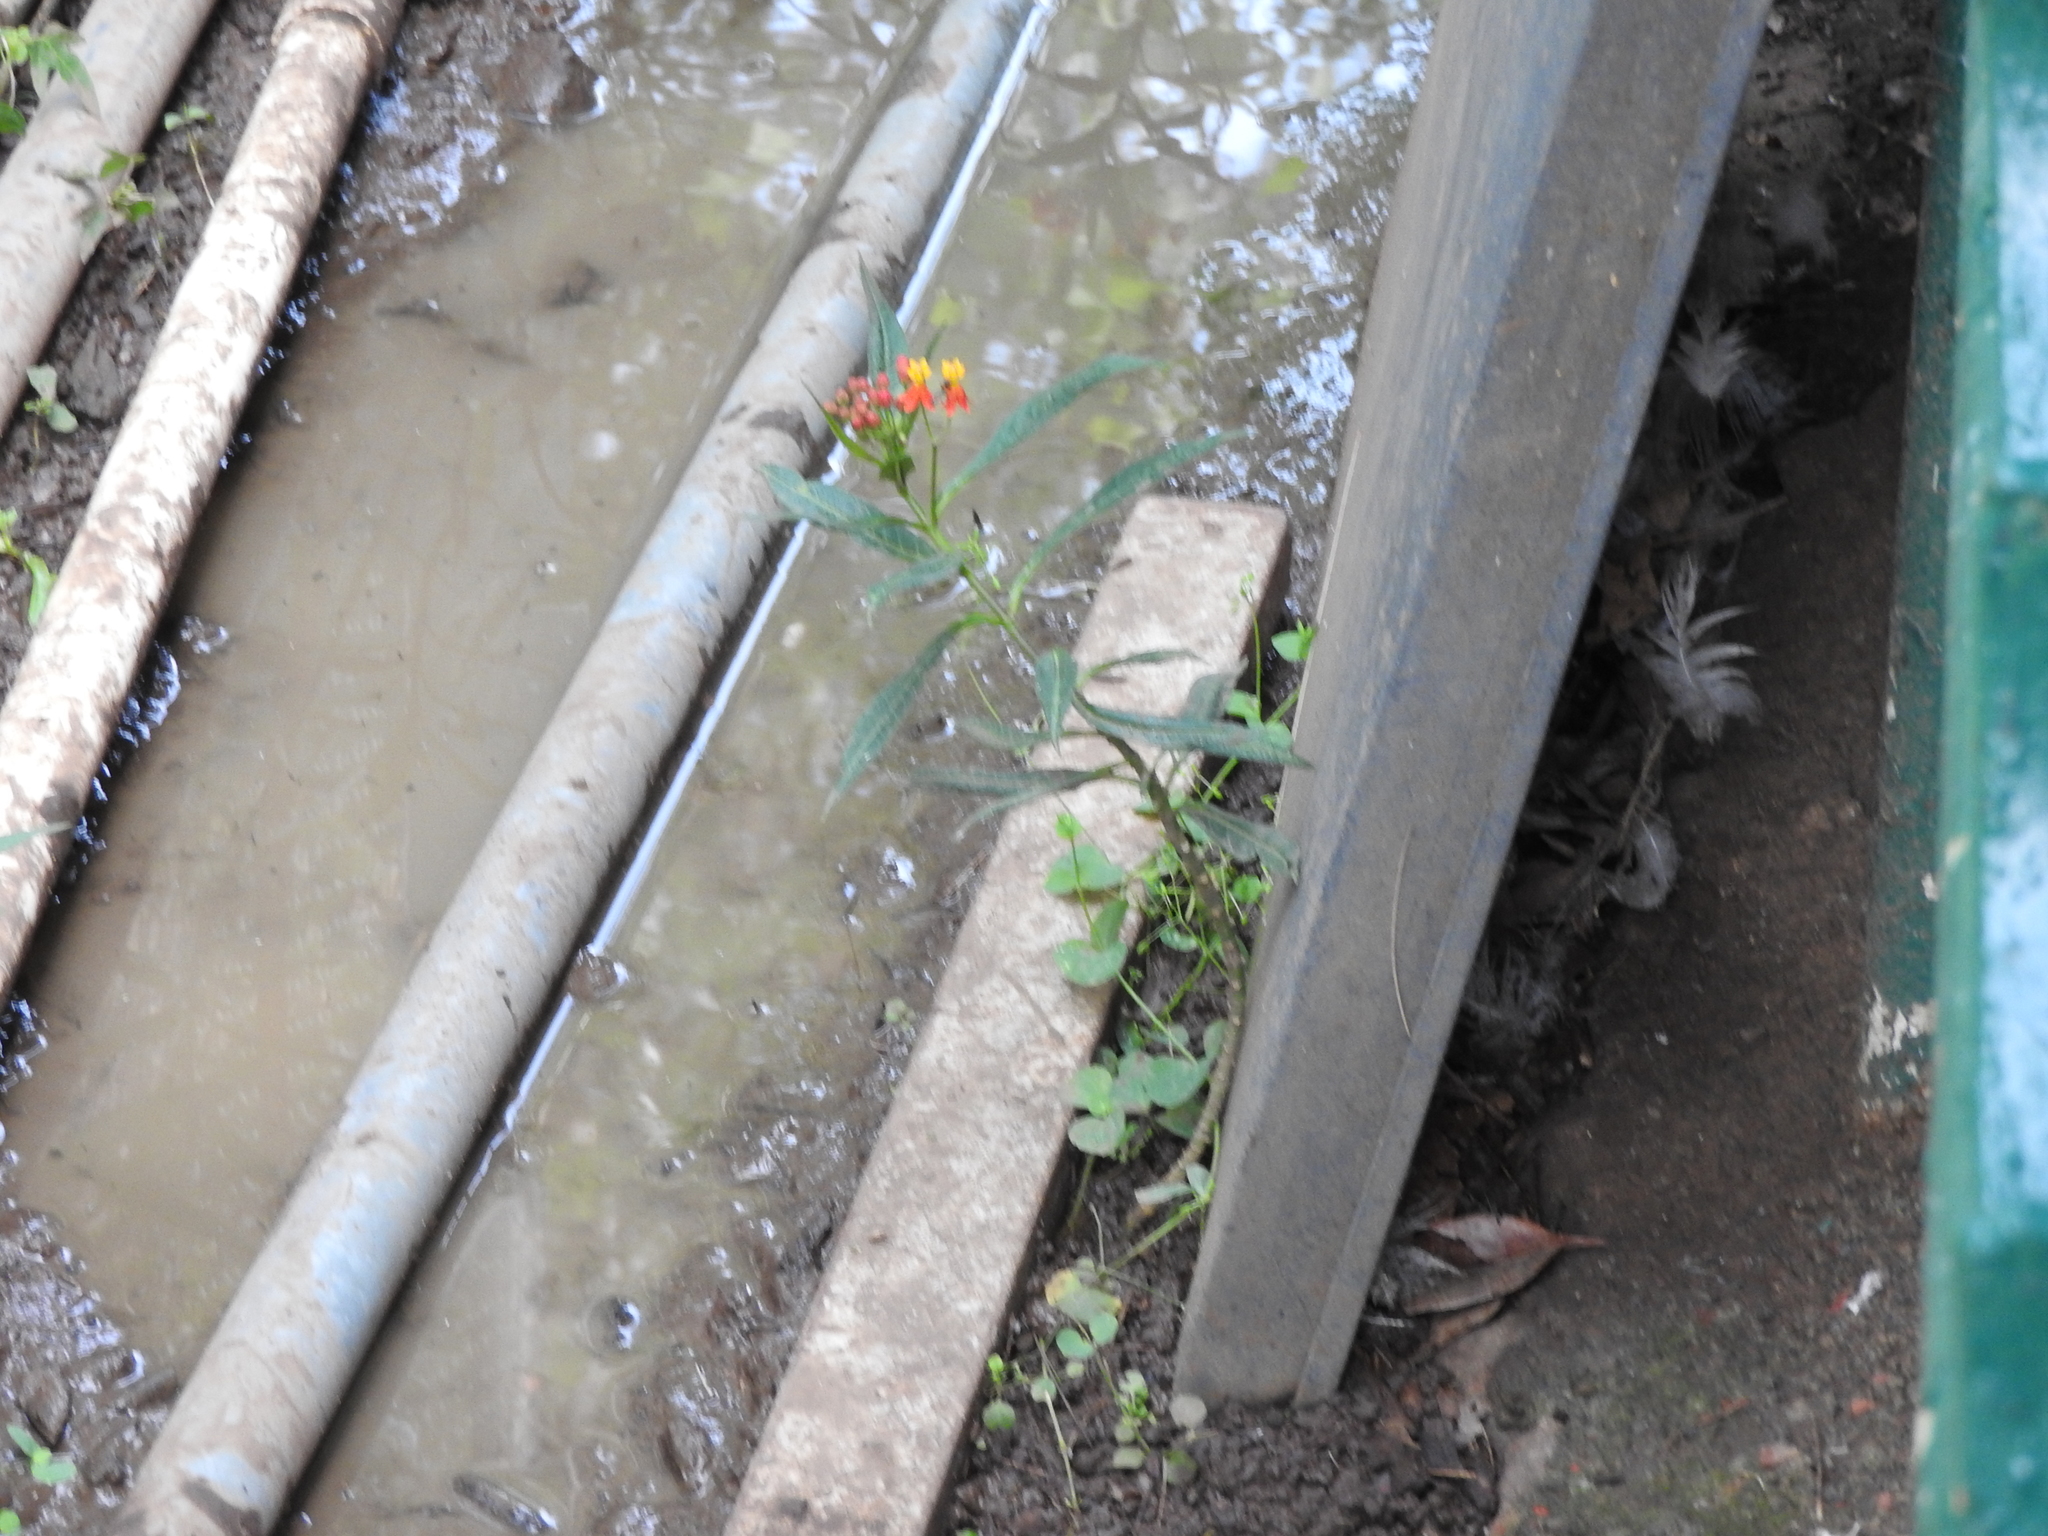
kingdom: Plantae
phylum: Tracheophyta
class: Magnoliopsida
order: Gentianales
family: Apocynaceae
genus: Asclepias
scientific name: Asclepias curassavica
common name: Bloodflower
